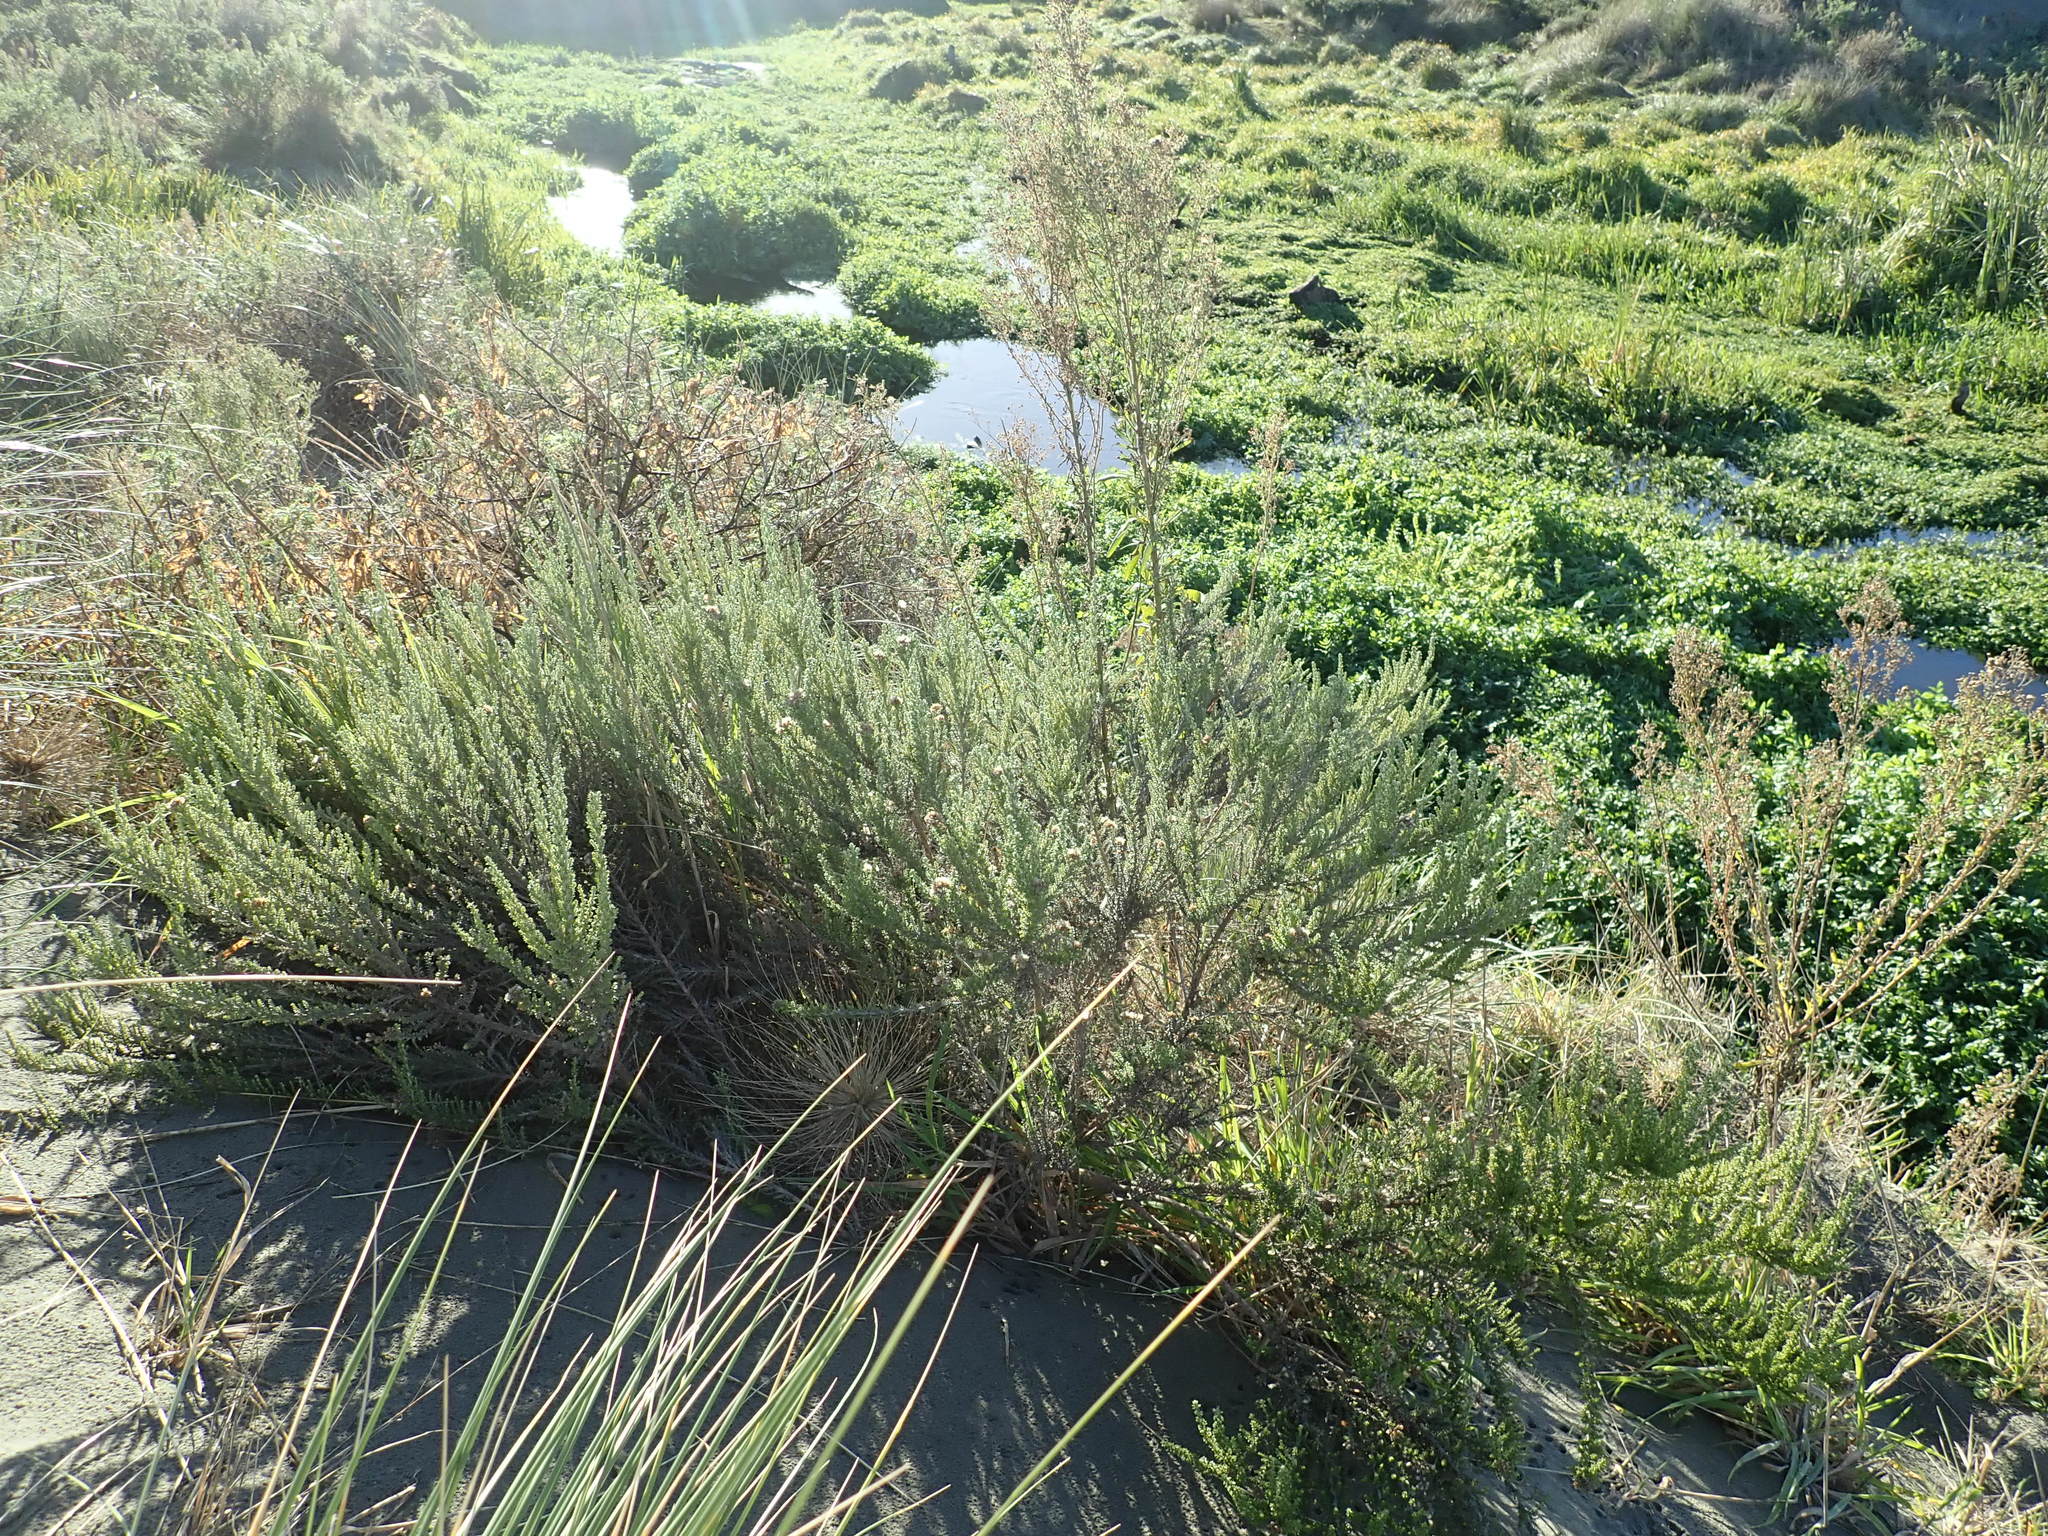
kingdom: Plantae
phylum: Tracheophyta
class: Magnoliopsida
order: Asterales
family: Asteraceae
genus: Ozothamnus
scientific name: Ozothamnus leptophyllus
